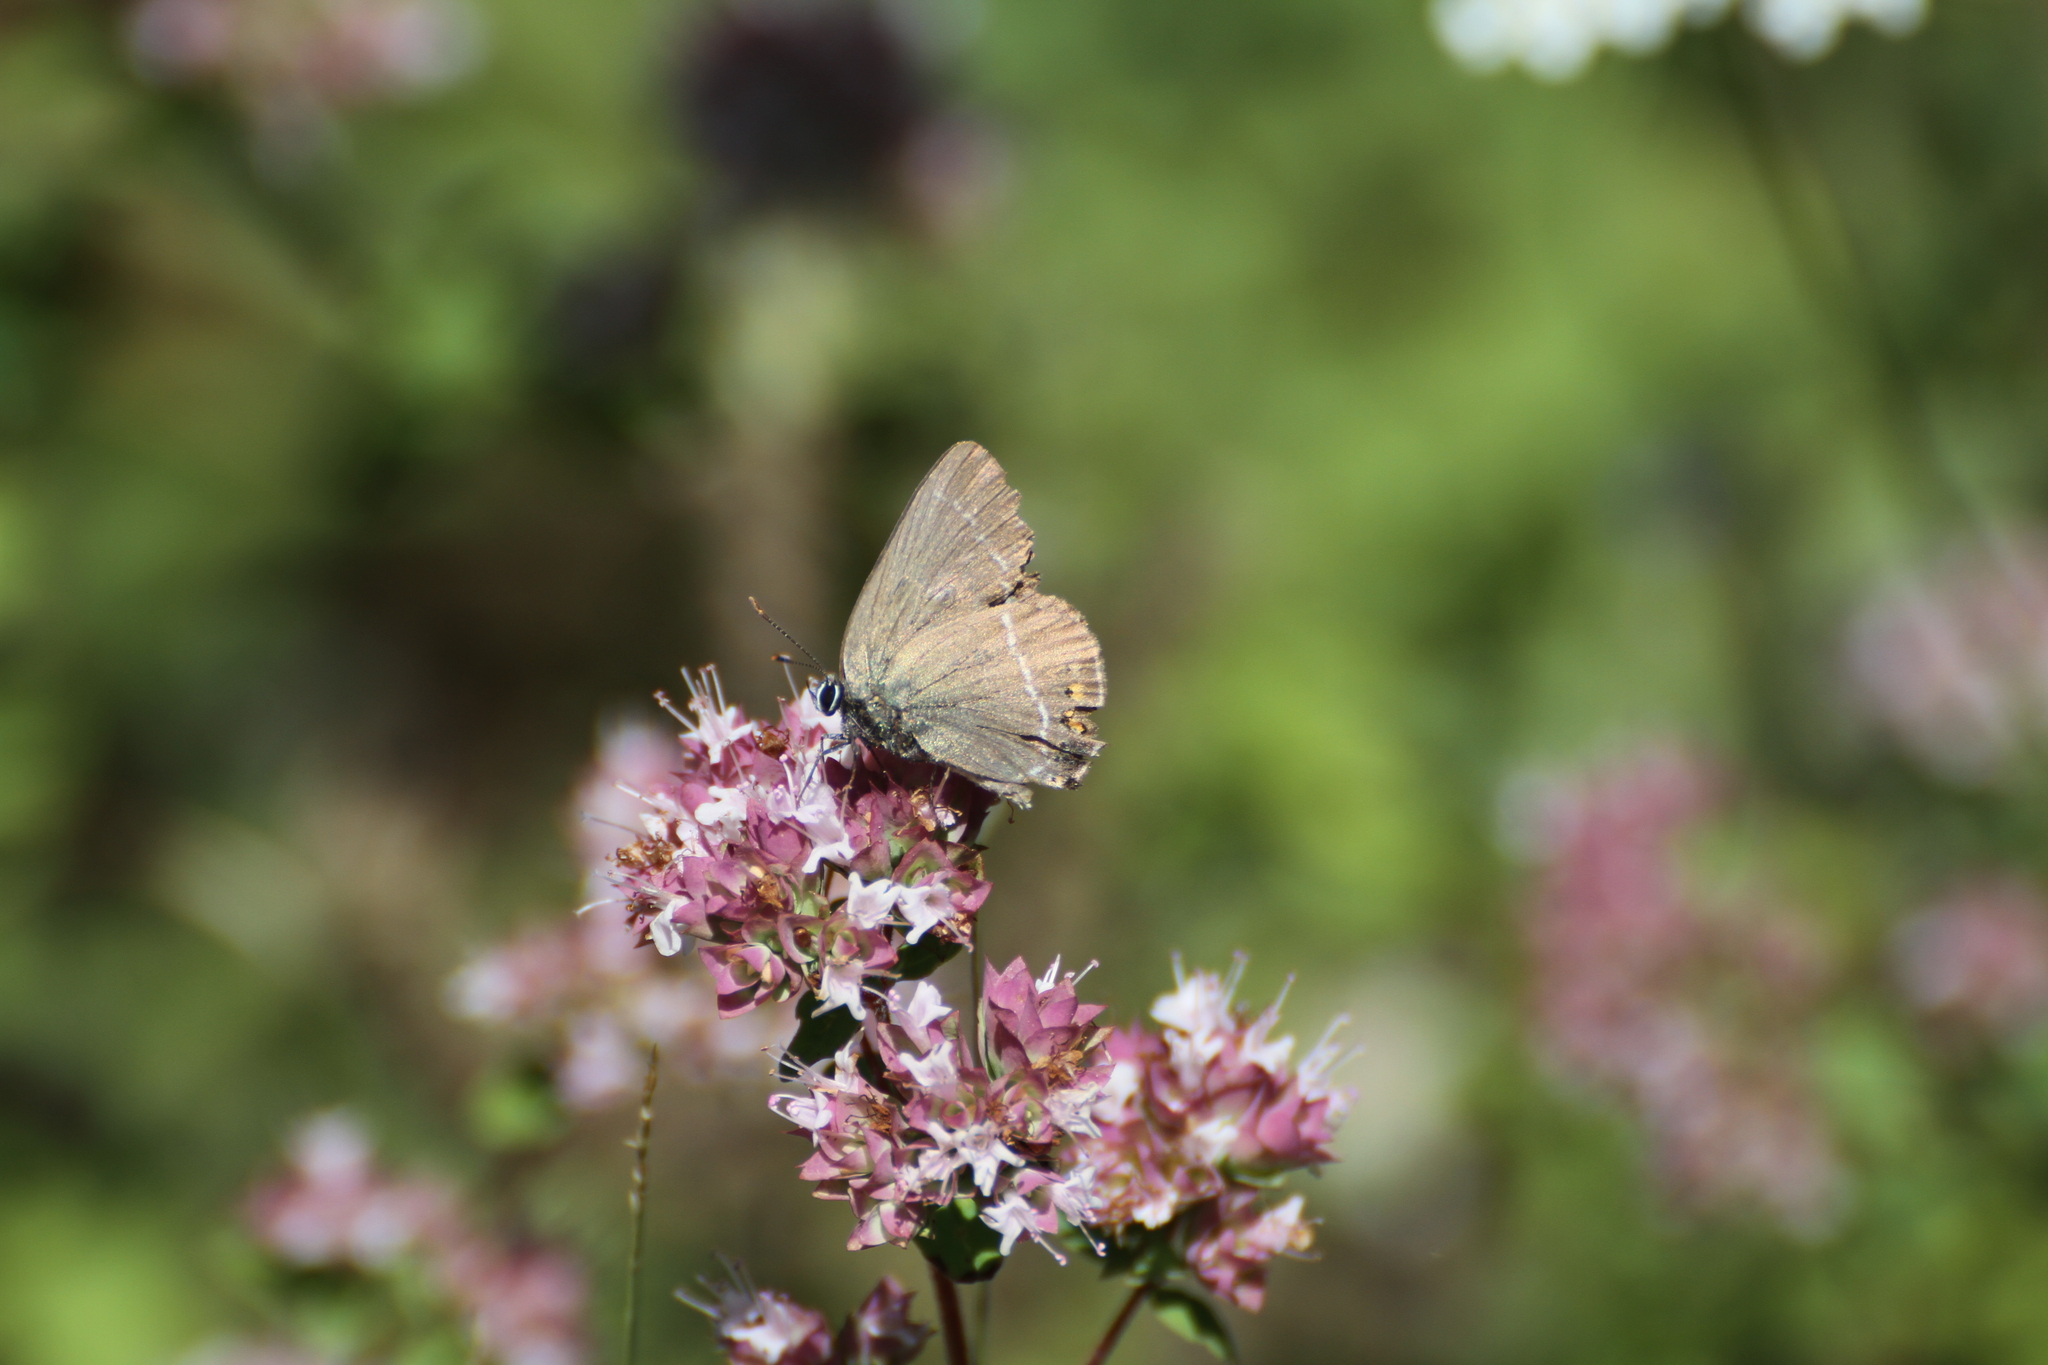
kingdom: Animalia
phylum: Arthropoda
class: Insecta
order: Lepidoptera
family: Lycaenidae
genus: Tuttiola
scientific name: Tuttiola spini
